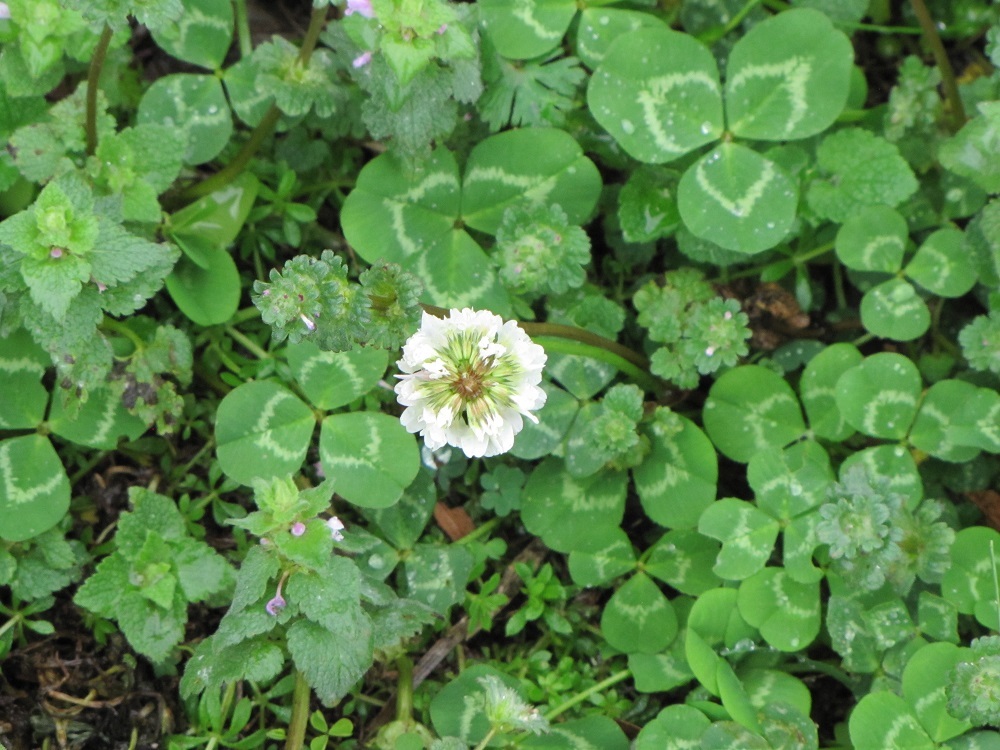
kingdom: Plantae
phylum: Tracheophyta
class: Magnoliopsida
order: Fabales
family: Fabaceae
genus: Trifolium
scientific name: Trifolium repens
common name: White clover
